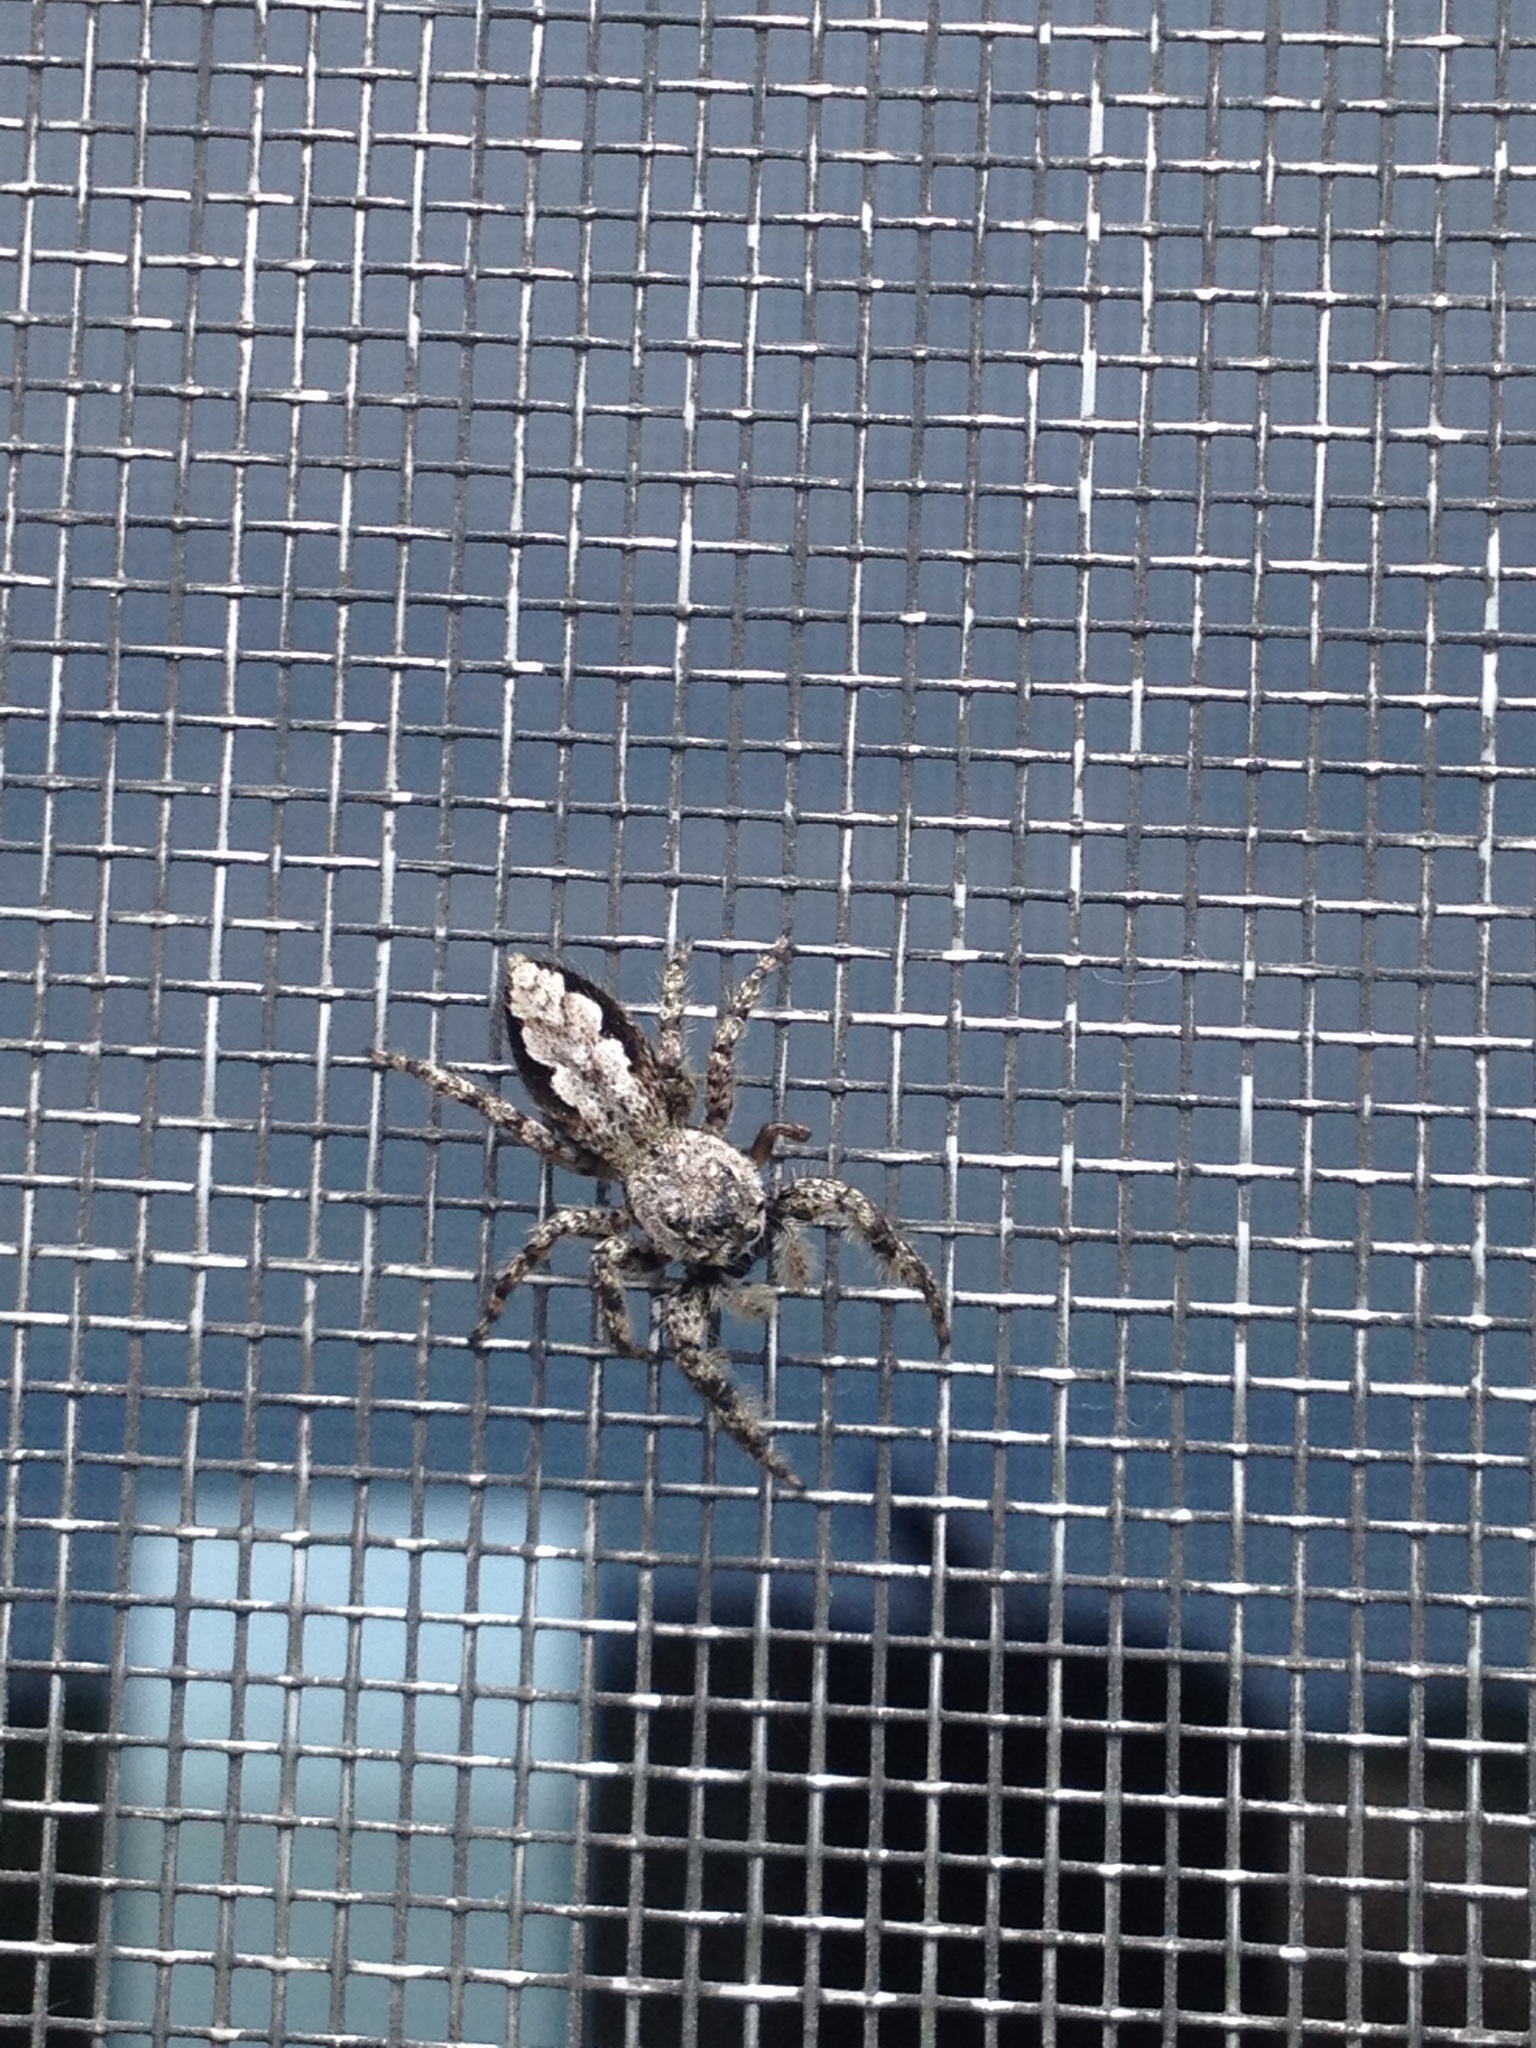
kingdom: Animalia
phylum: Arthropoda
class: Arachnida
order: Araneae
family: Salticidae
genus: Platycryptus
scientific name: Platycryptus undatus
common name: Tan jumping spider
